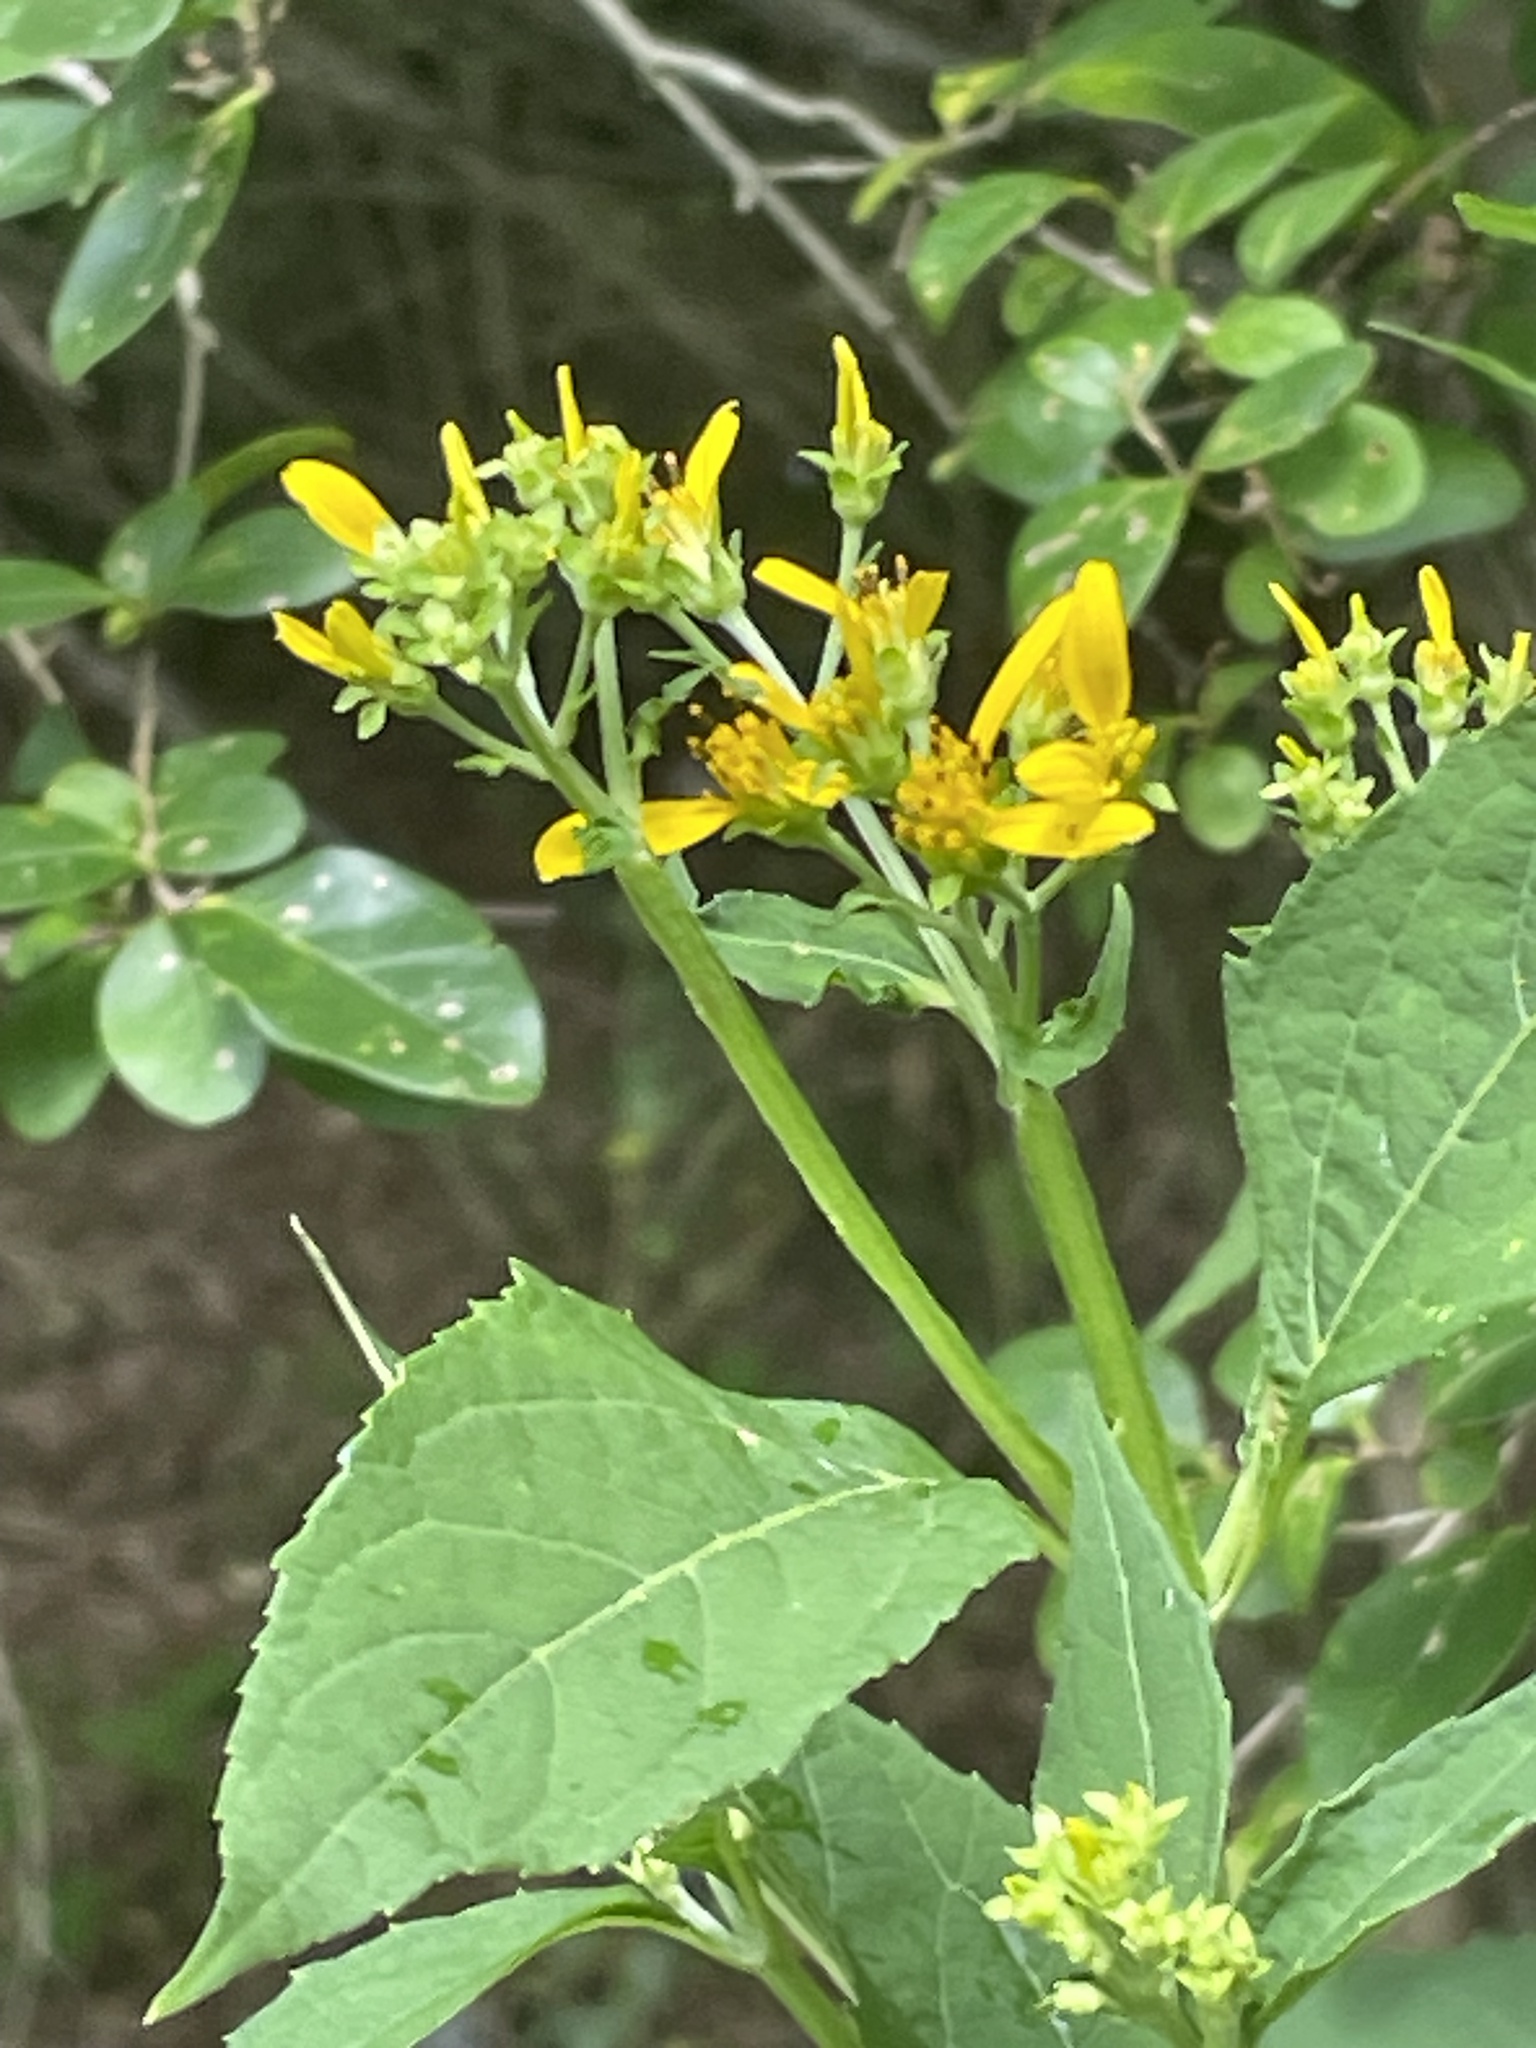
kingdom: Plantae
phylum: Tracheophyta
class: Magnoliopsida
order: Asterales
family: Asteraceae
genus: Verbesina
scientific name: Verbesina occidentalis
